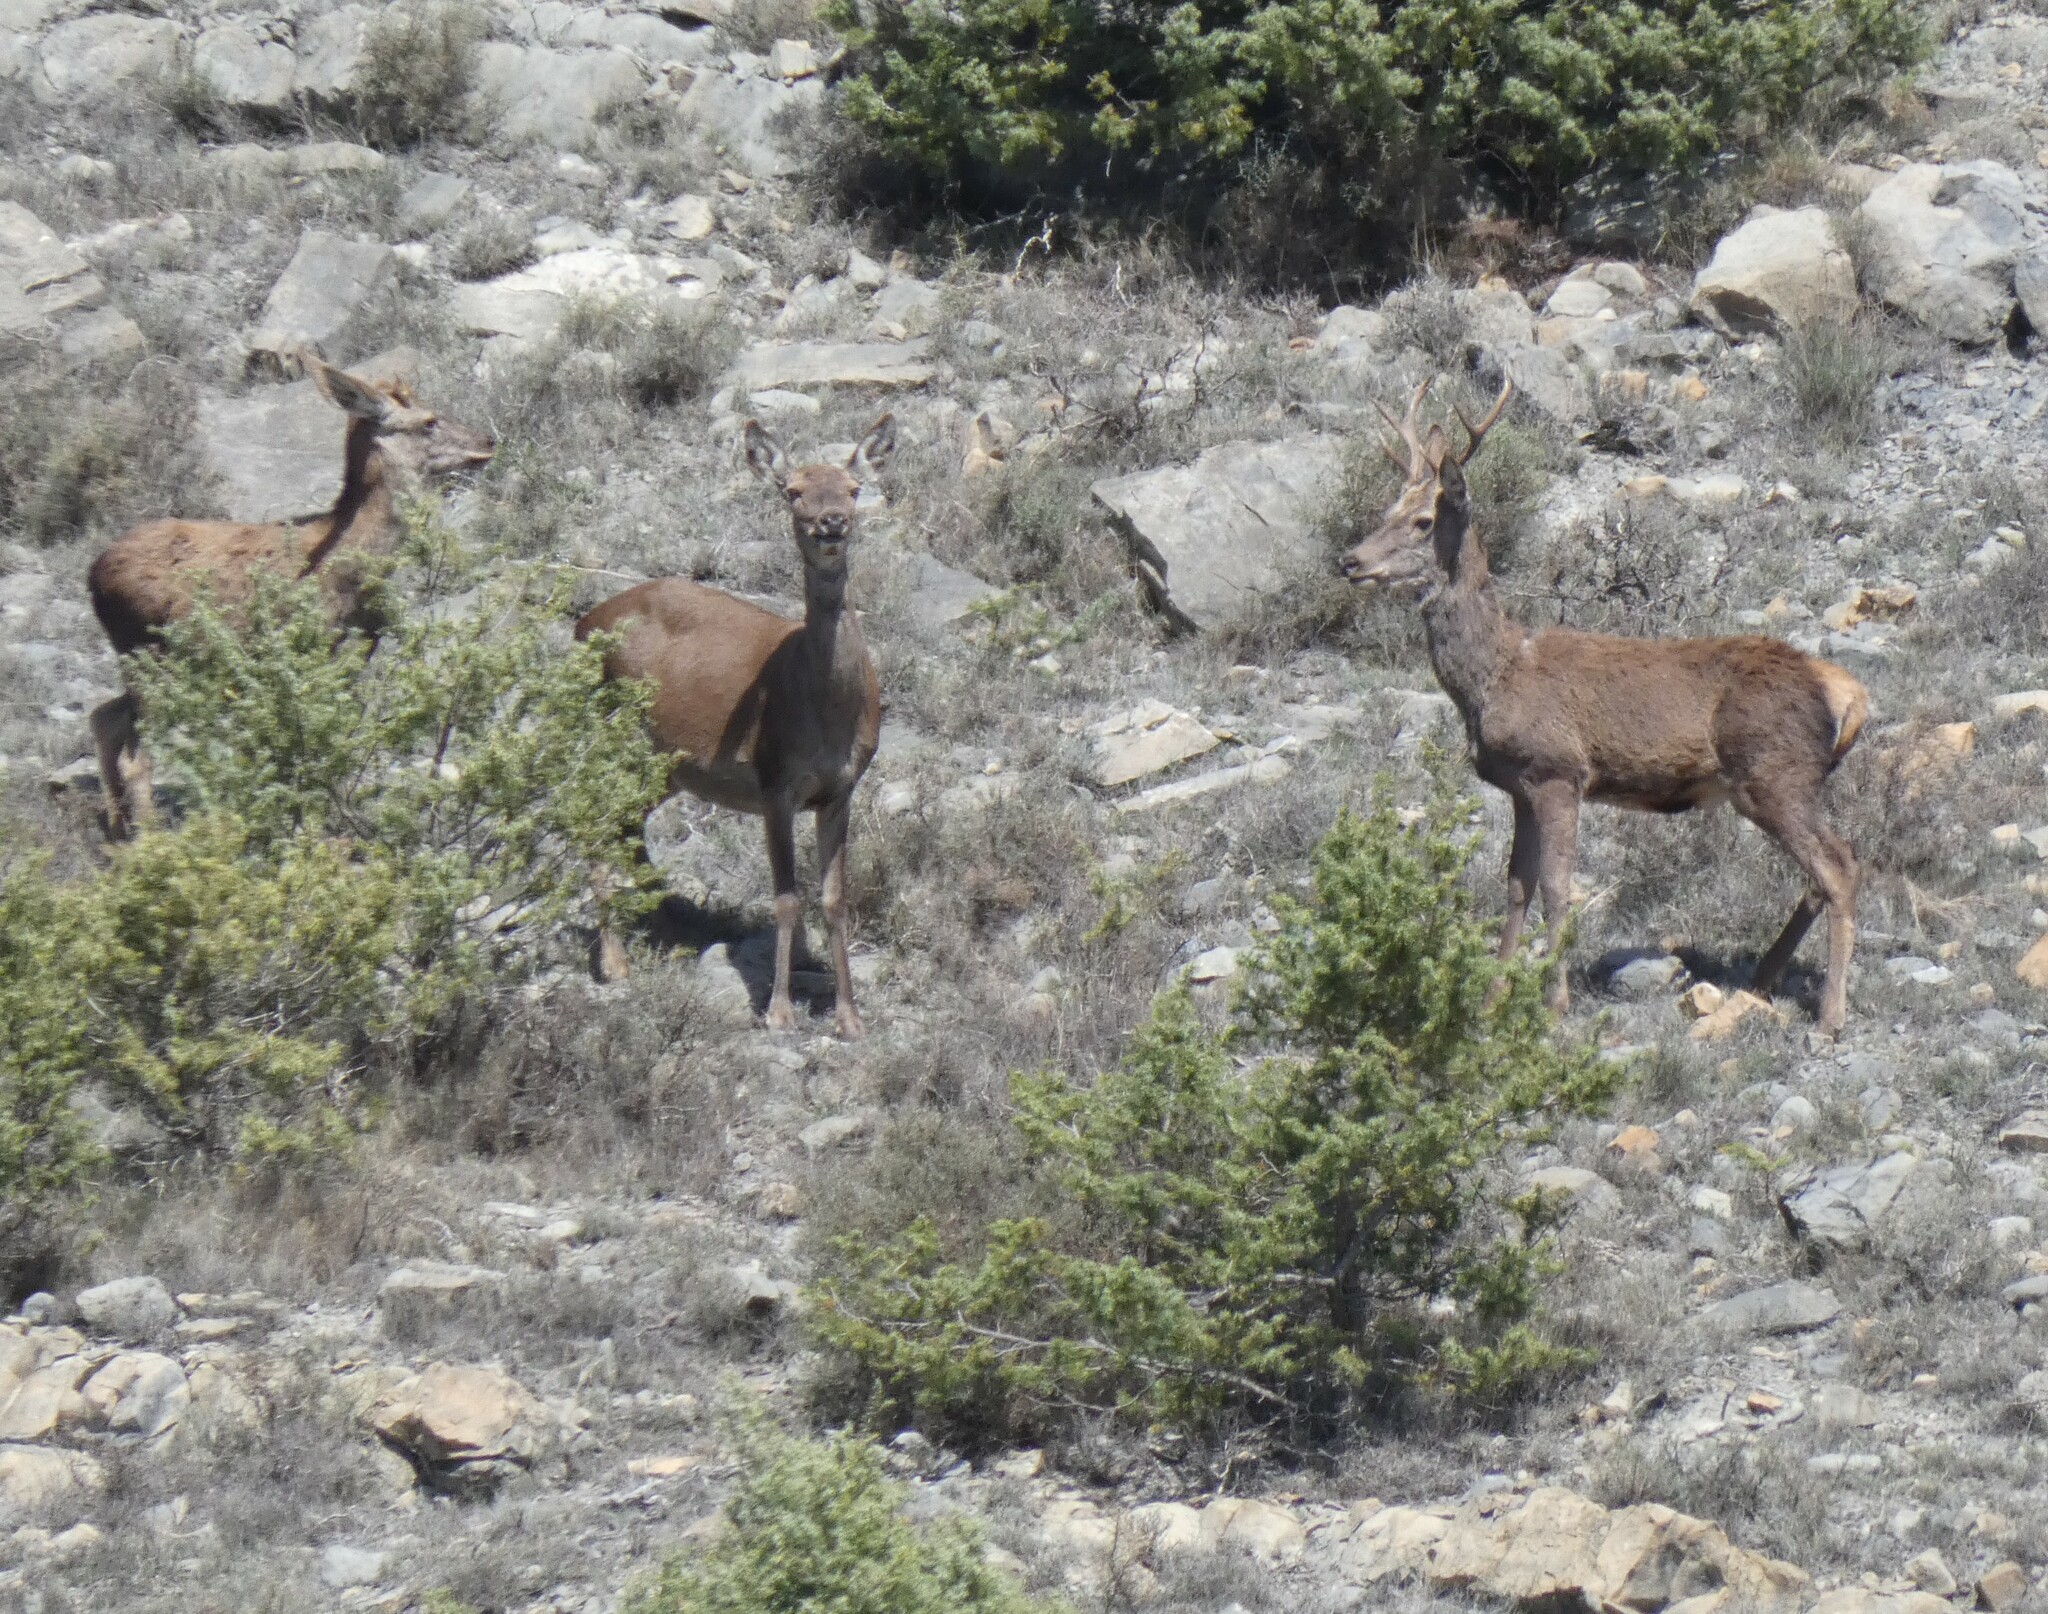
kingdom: Animalia
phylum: Chordata
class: Mammalia
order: Artiodactyla
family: Cervidae
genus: Cervus
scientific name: Cervus elaphus
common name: Red deer
